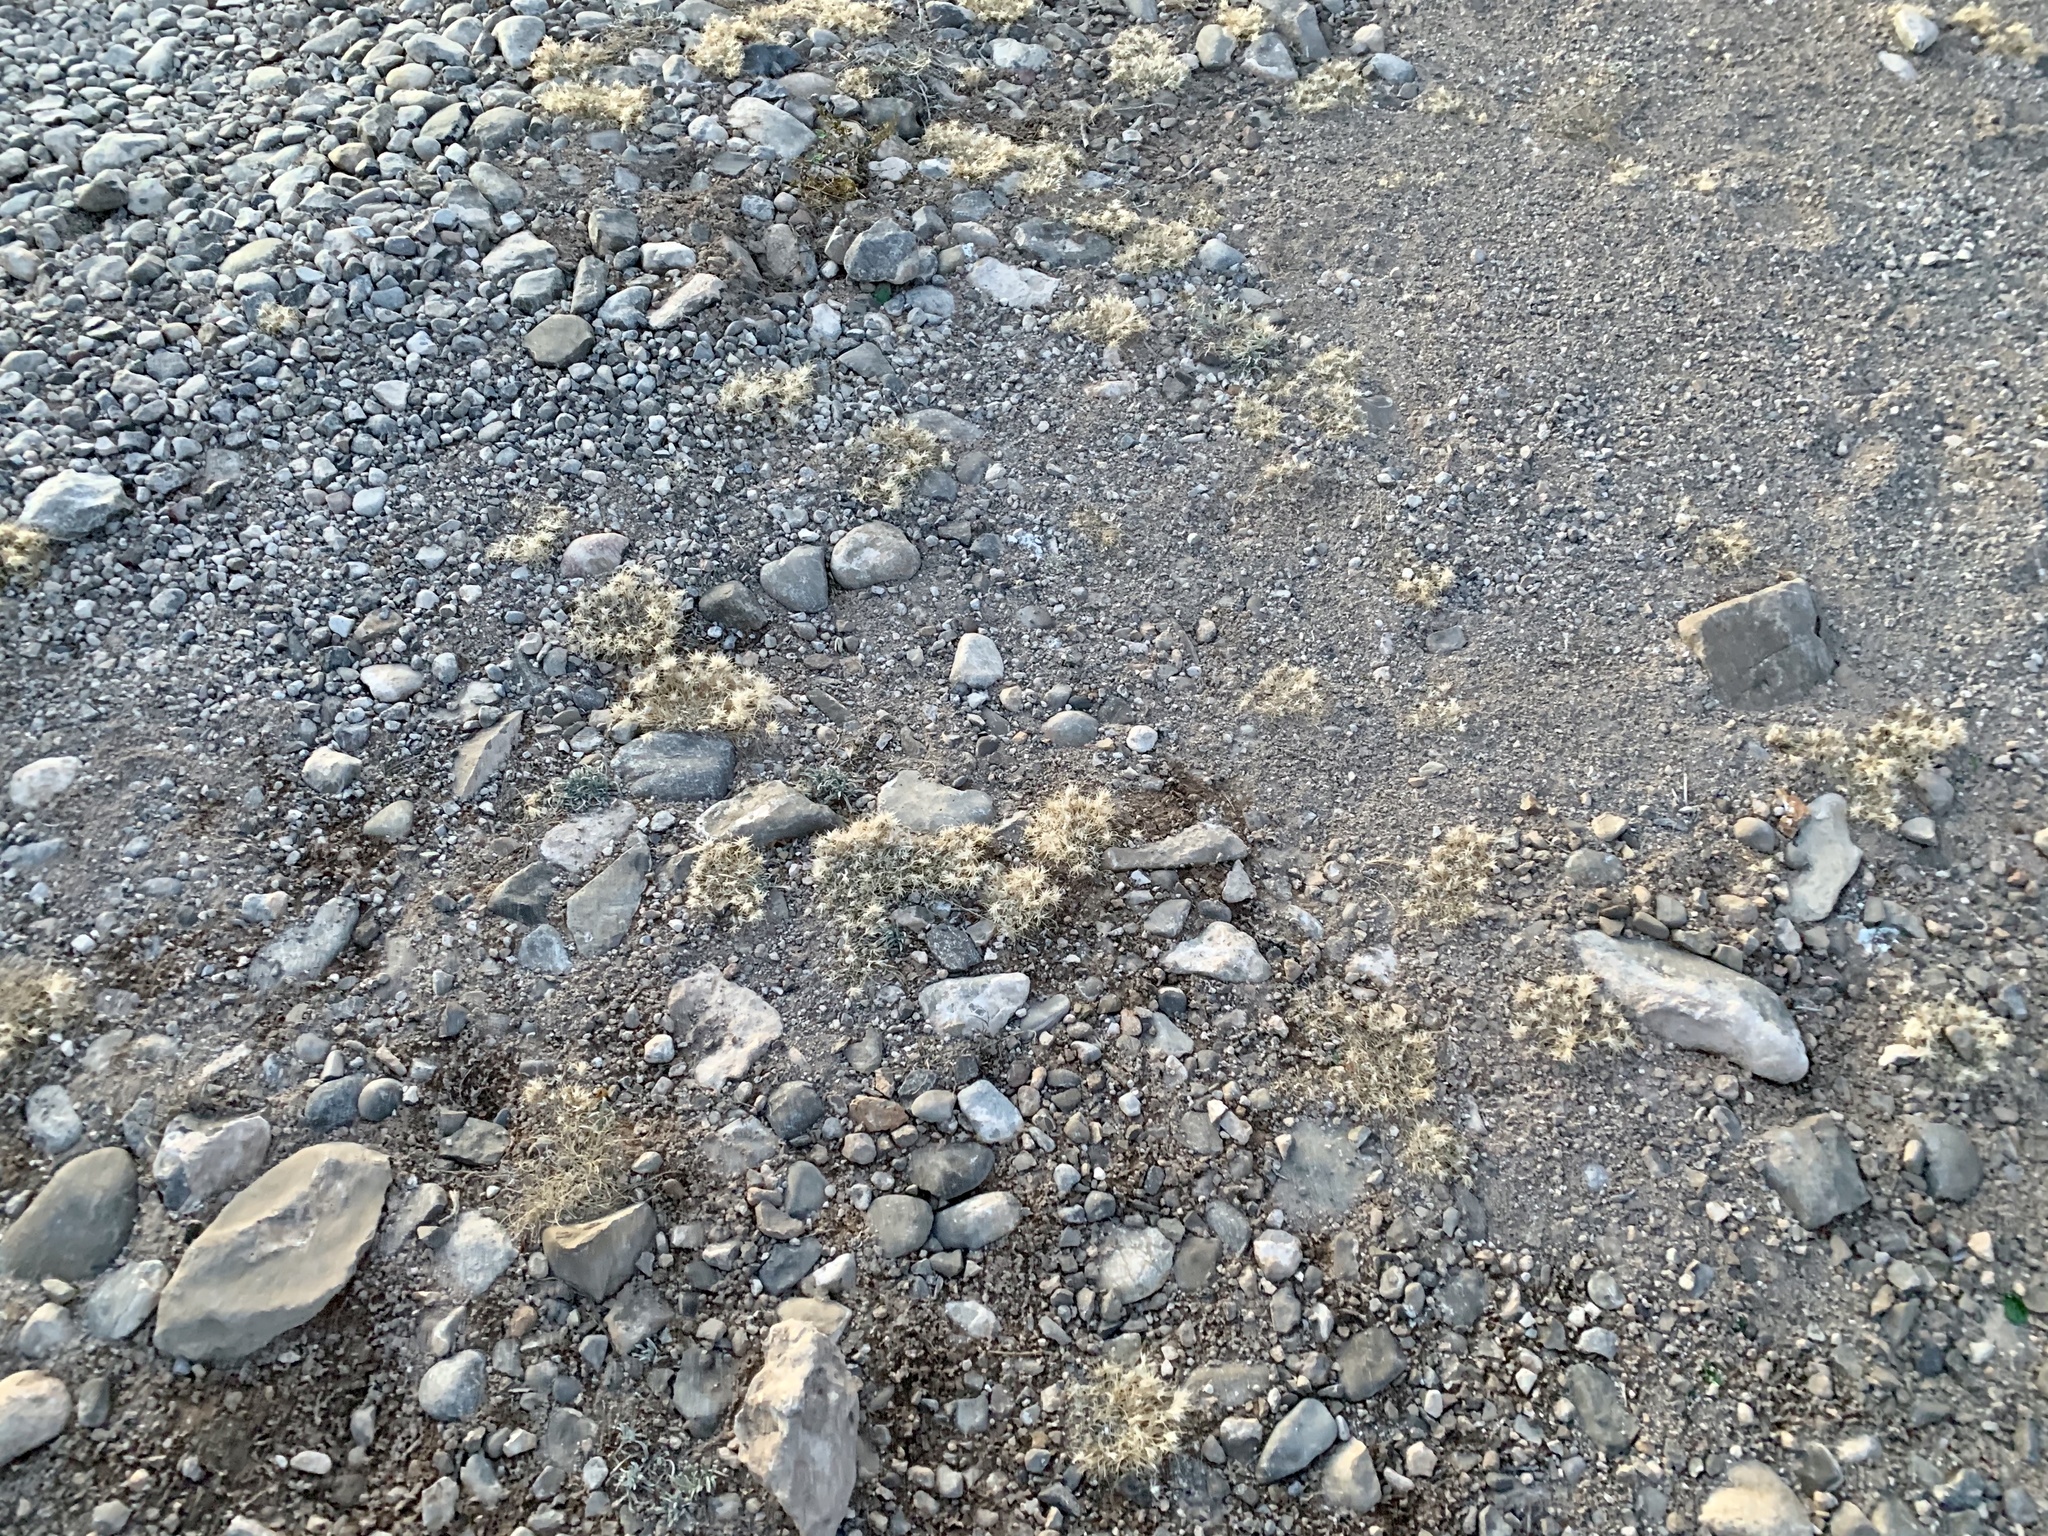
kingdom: Plantae
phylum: Tracheophyta
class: Liliopsida
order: Poales
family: Poaceae
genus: Dasyochloa
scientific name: Dasyochloa pulchella
